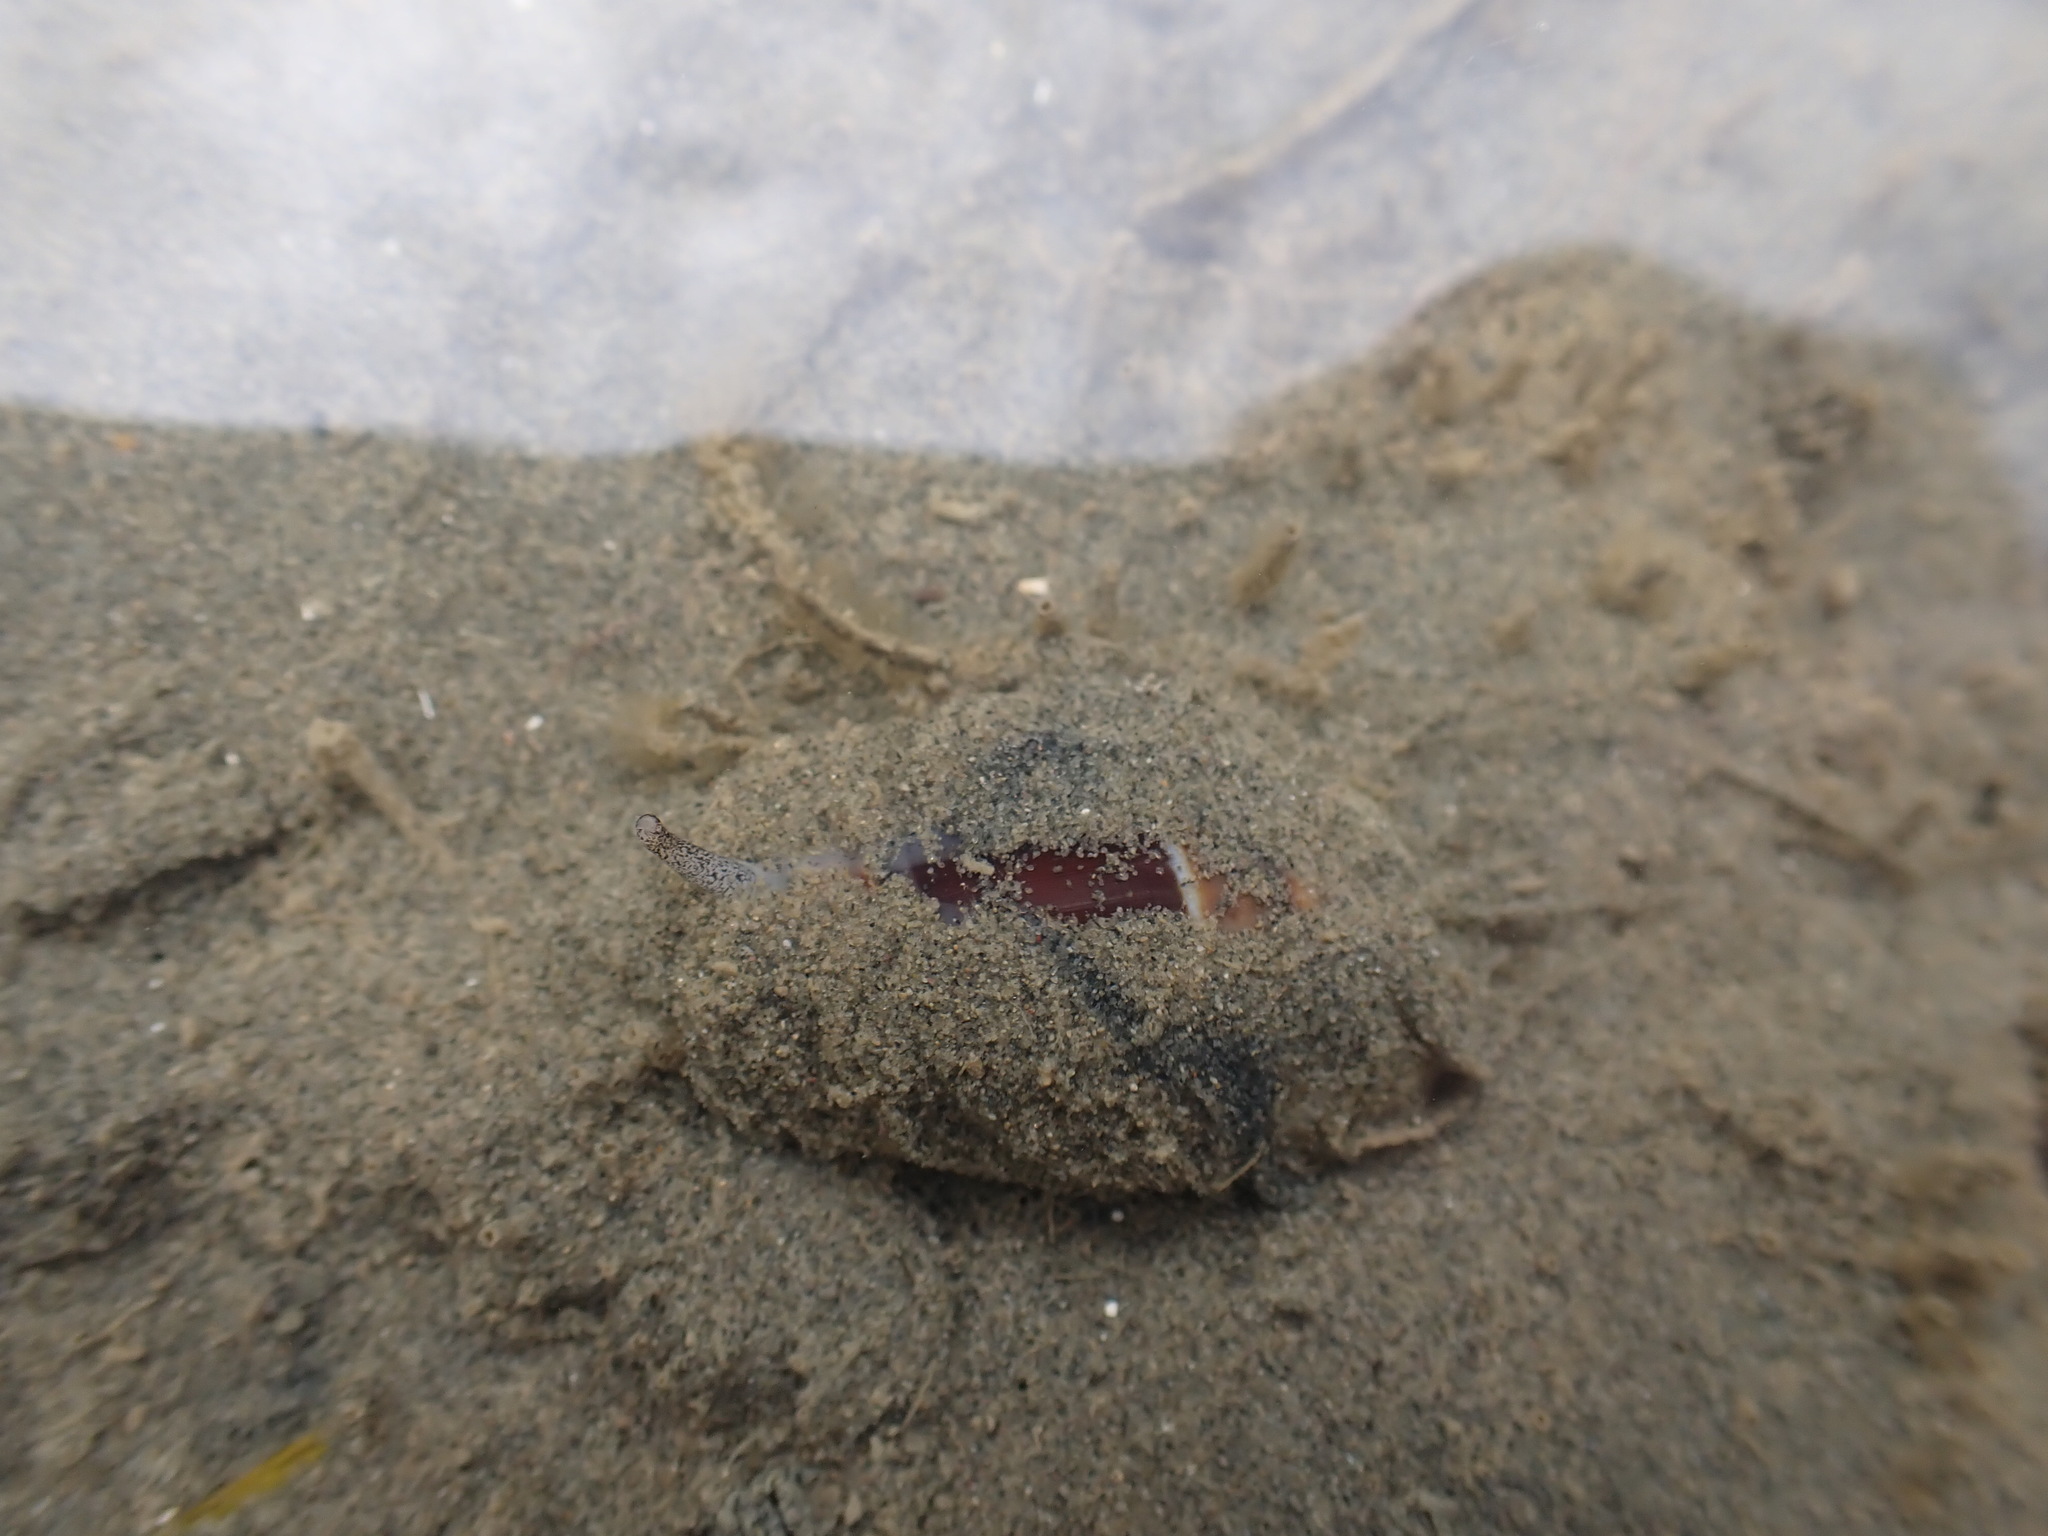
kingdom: Animalia
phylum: Mollusca
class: Gastropoda
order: Neogastropoda
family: Ancillariidae
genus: Amalda
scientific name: Amalda australis
